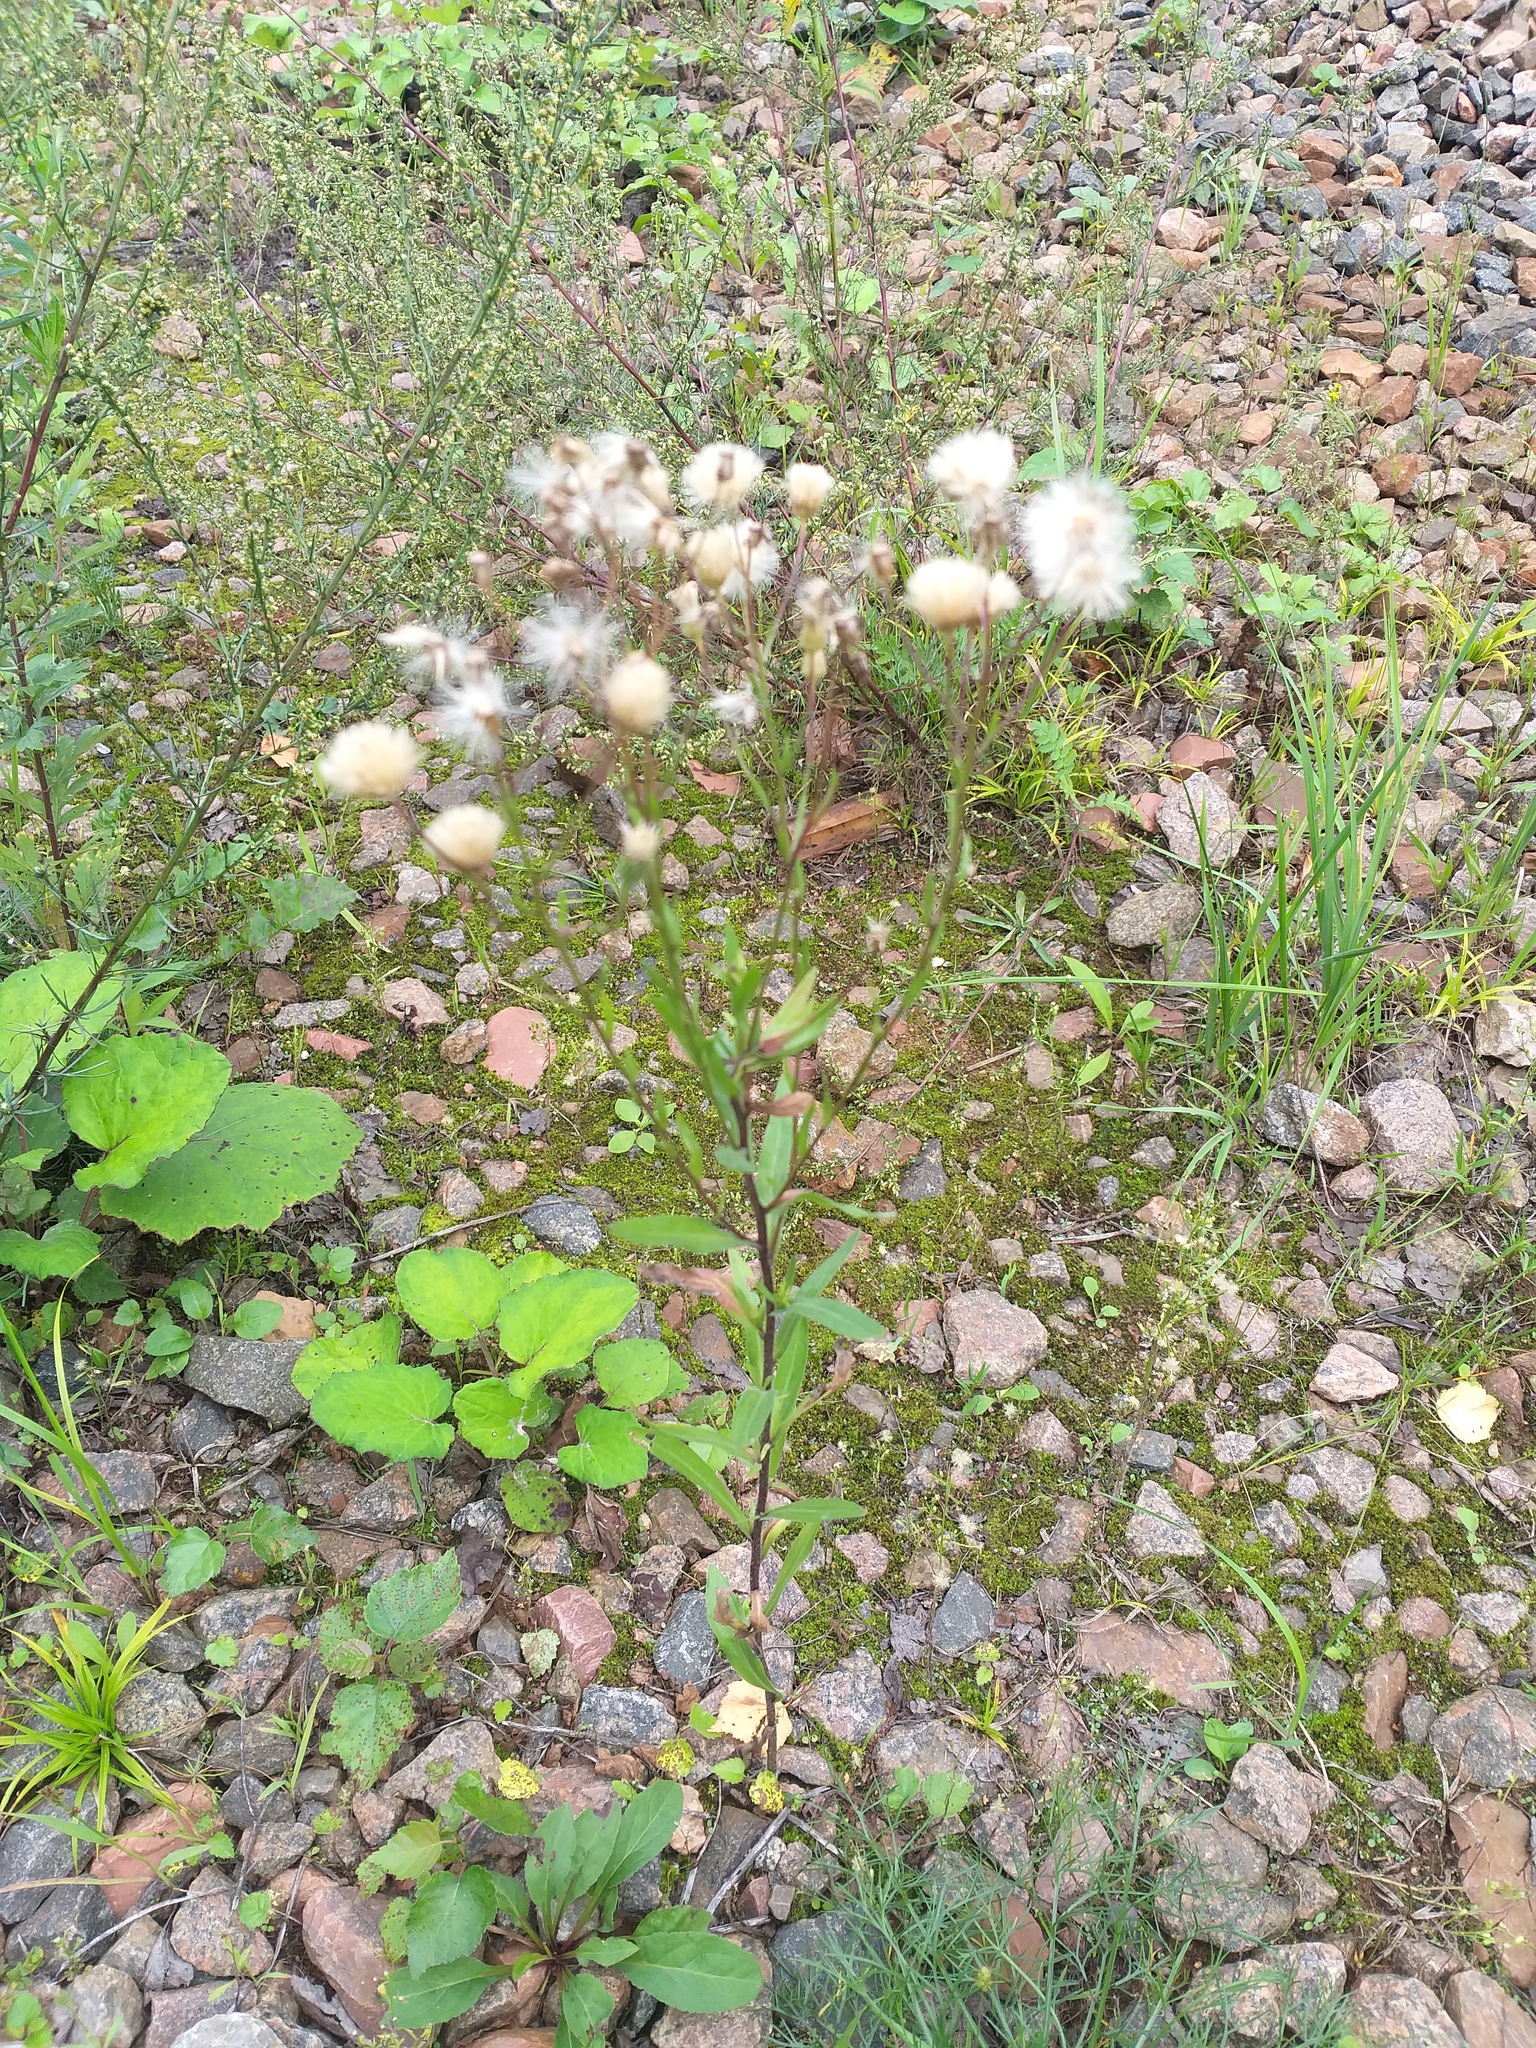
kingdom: Plantae
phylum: Tracheophyta
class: Magnoliopsida
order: Asterales
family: Asteraceae
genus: Erigeron
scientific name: Erigeron acris
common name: Blue fleabane
